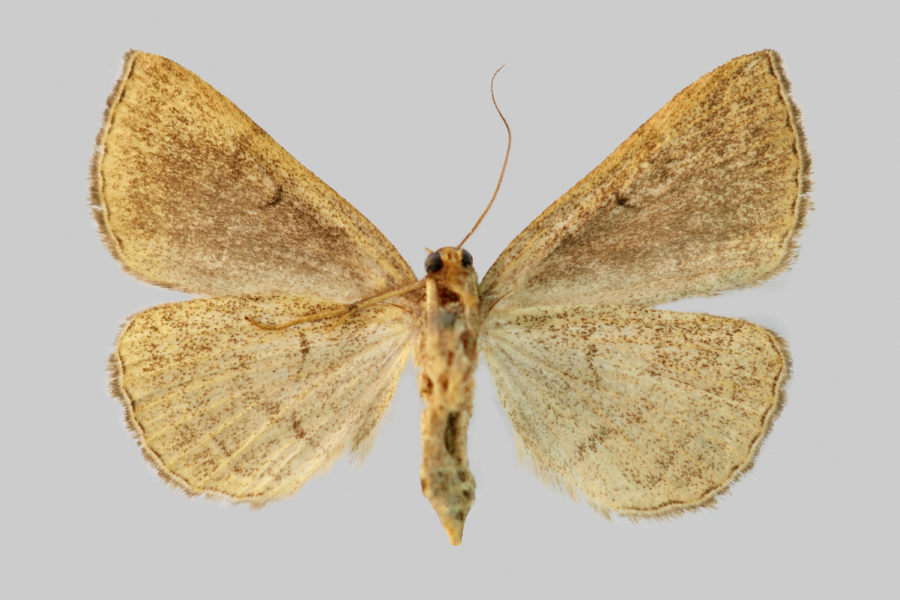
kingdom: Animalia
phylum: Arthropoda
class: Insecta
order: Lepidoptera
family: Erebidae
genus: Zanclognatha
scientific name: Zanclognatha lunalis
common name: Jubilee fan-foot
